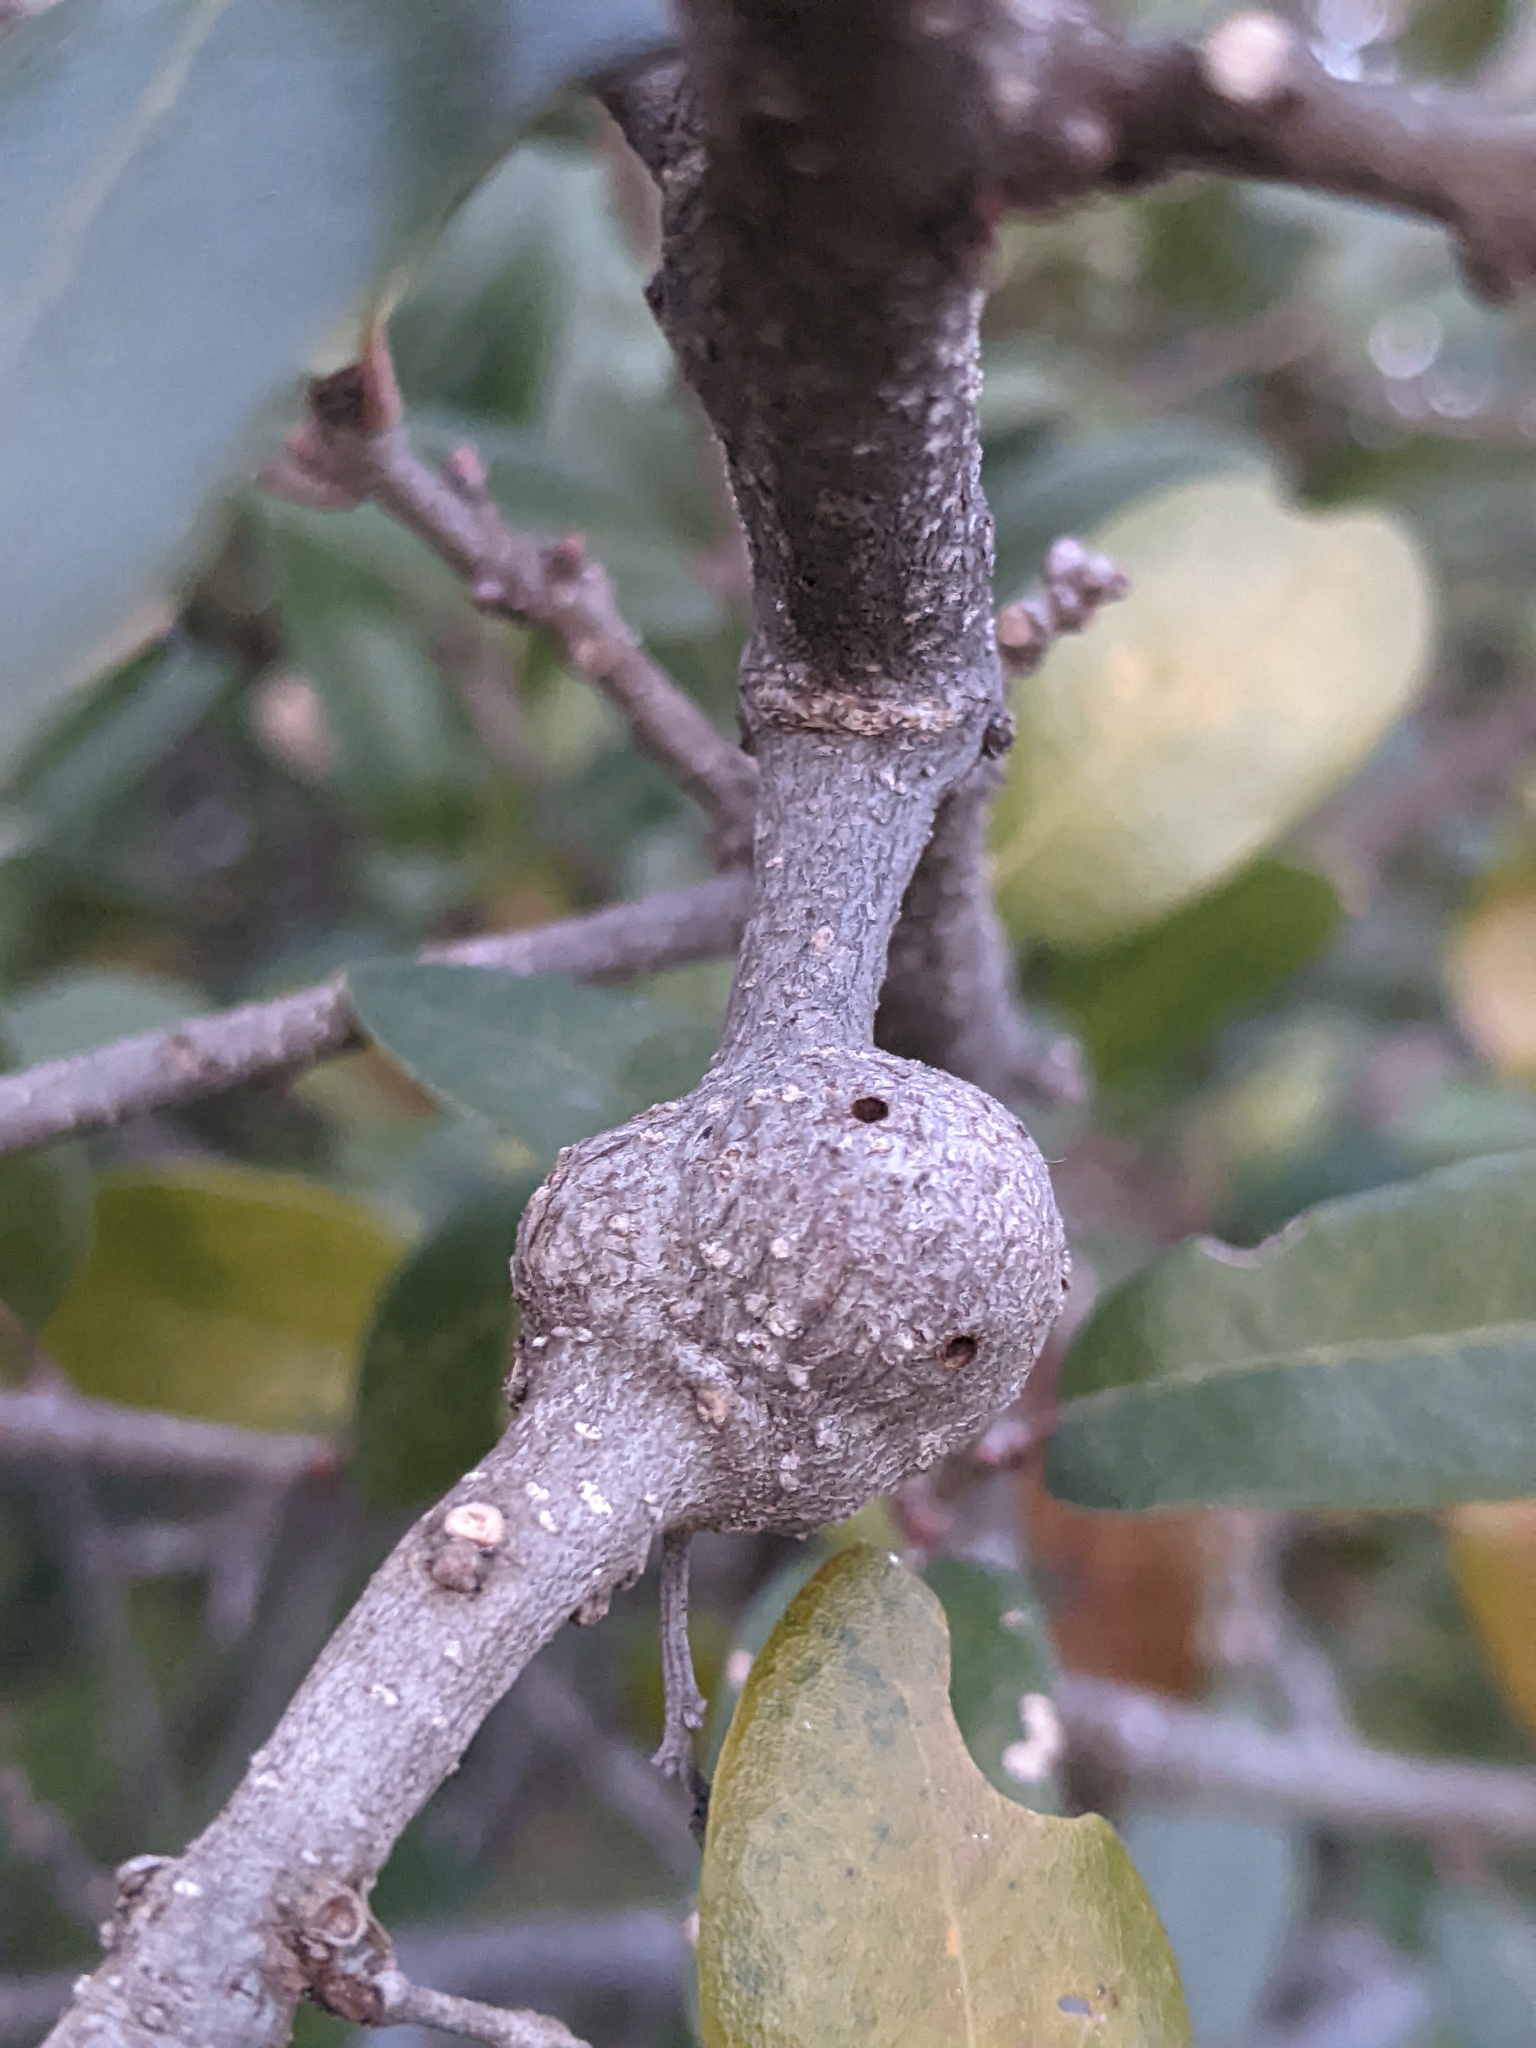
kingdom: Animalia
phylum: Arthropoda
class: Insecta
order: Hymenoptera
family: Cynipidae
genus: Callirhytis
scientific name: Callirhytis
